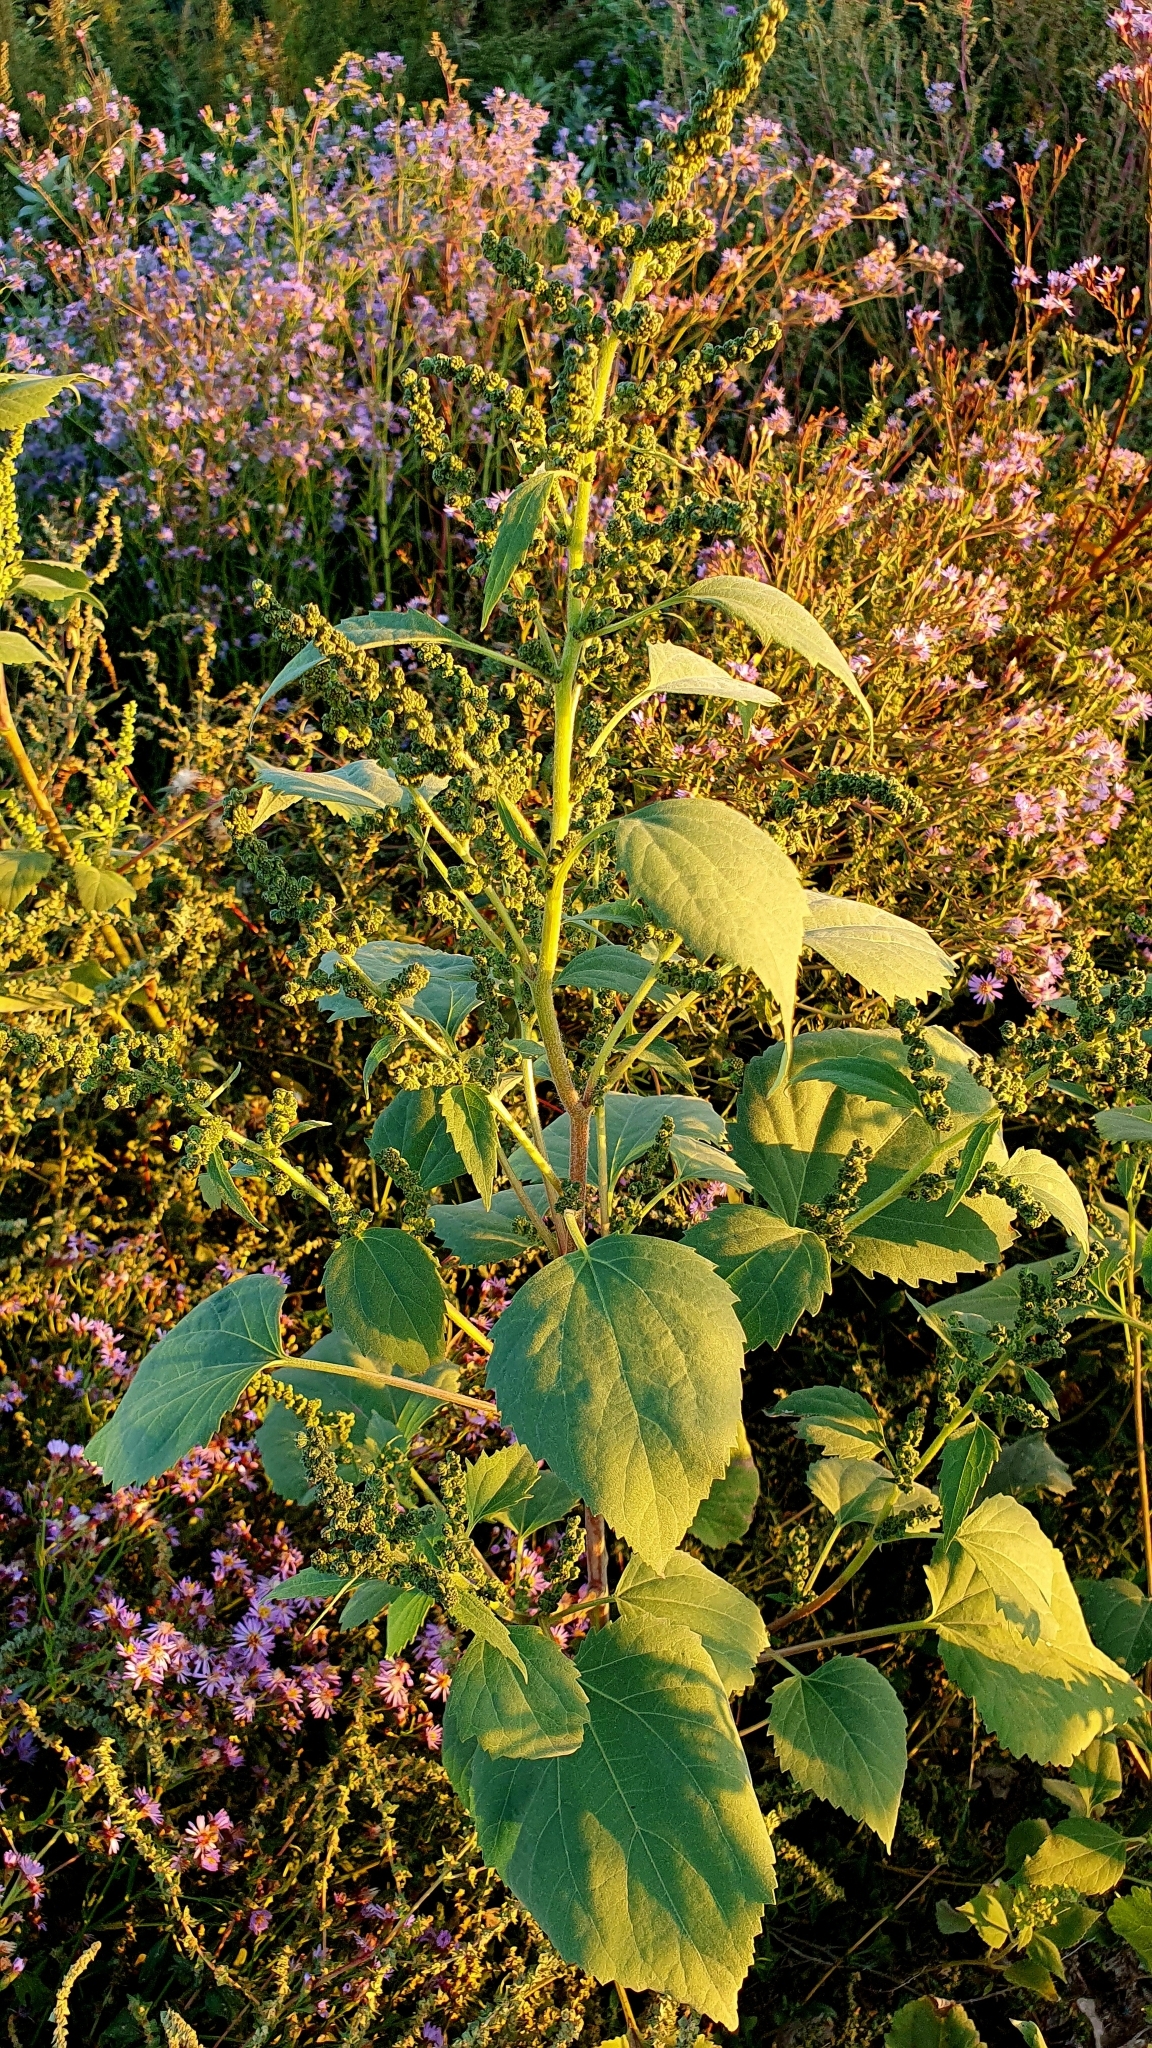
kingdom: Plantae
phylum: Tracheophyta
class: Magnoliopsida
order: Asterales
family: Asteraceae
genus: Cyclachaena
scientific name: Cyclachaena xanthiifolia
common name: Giant sumpweed
